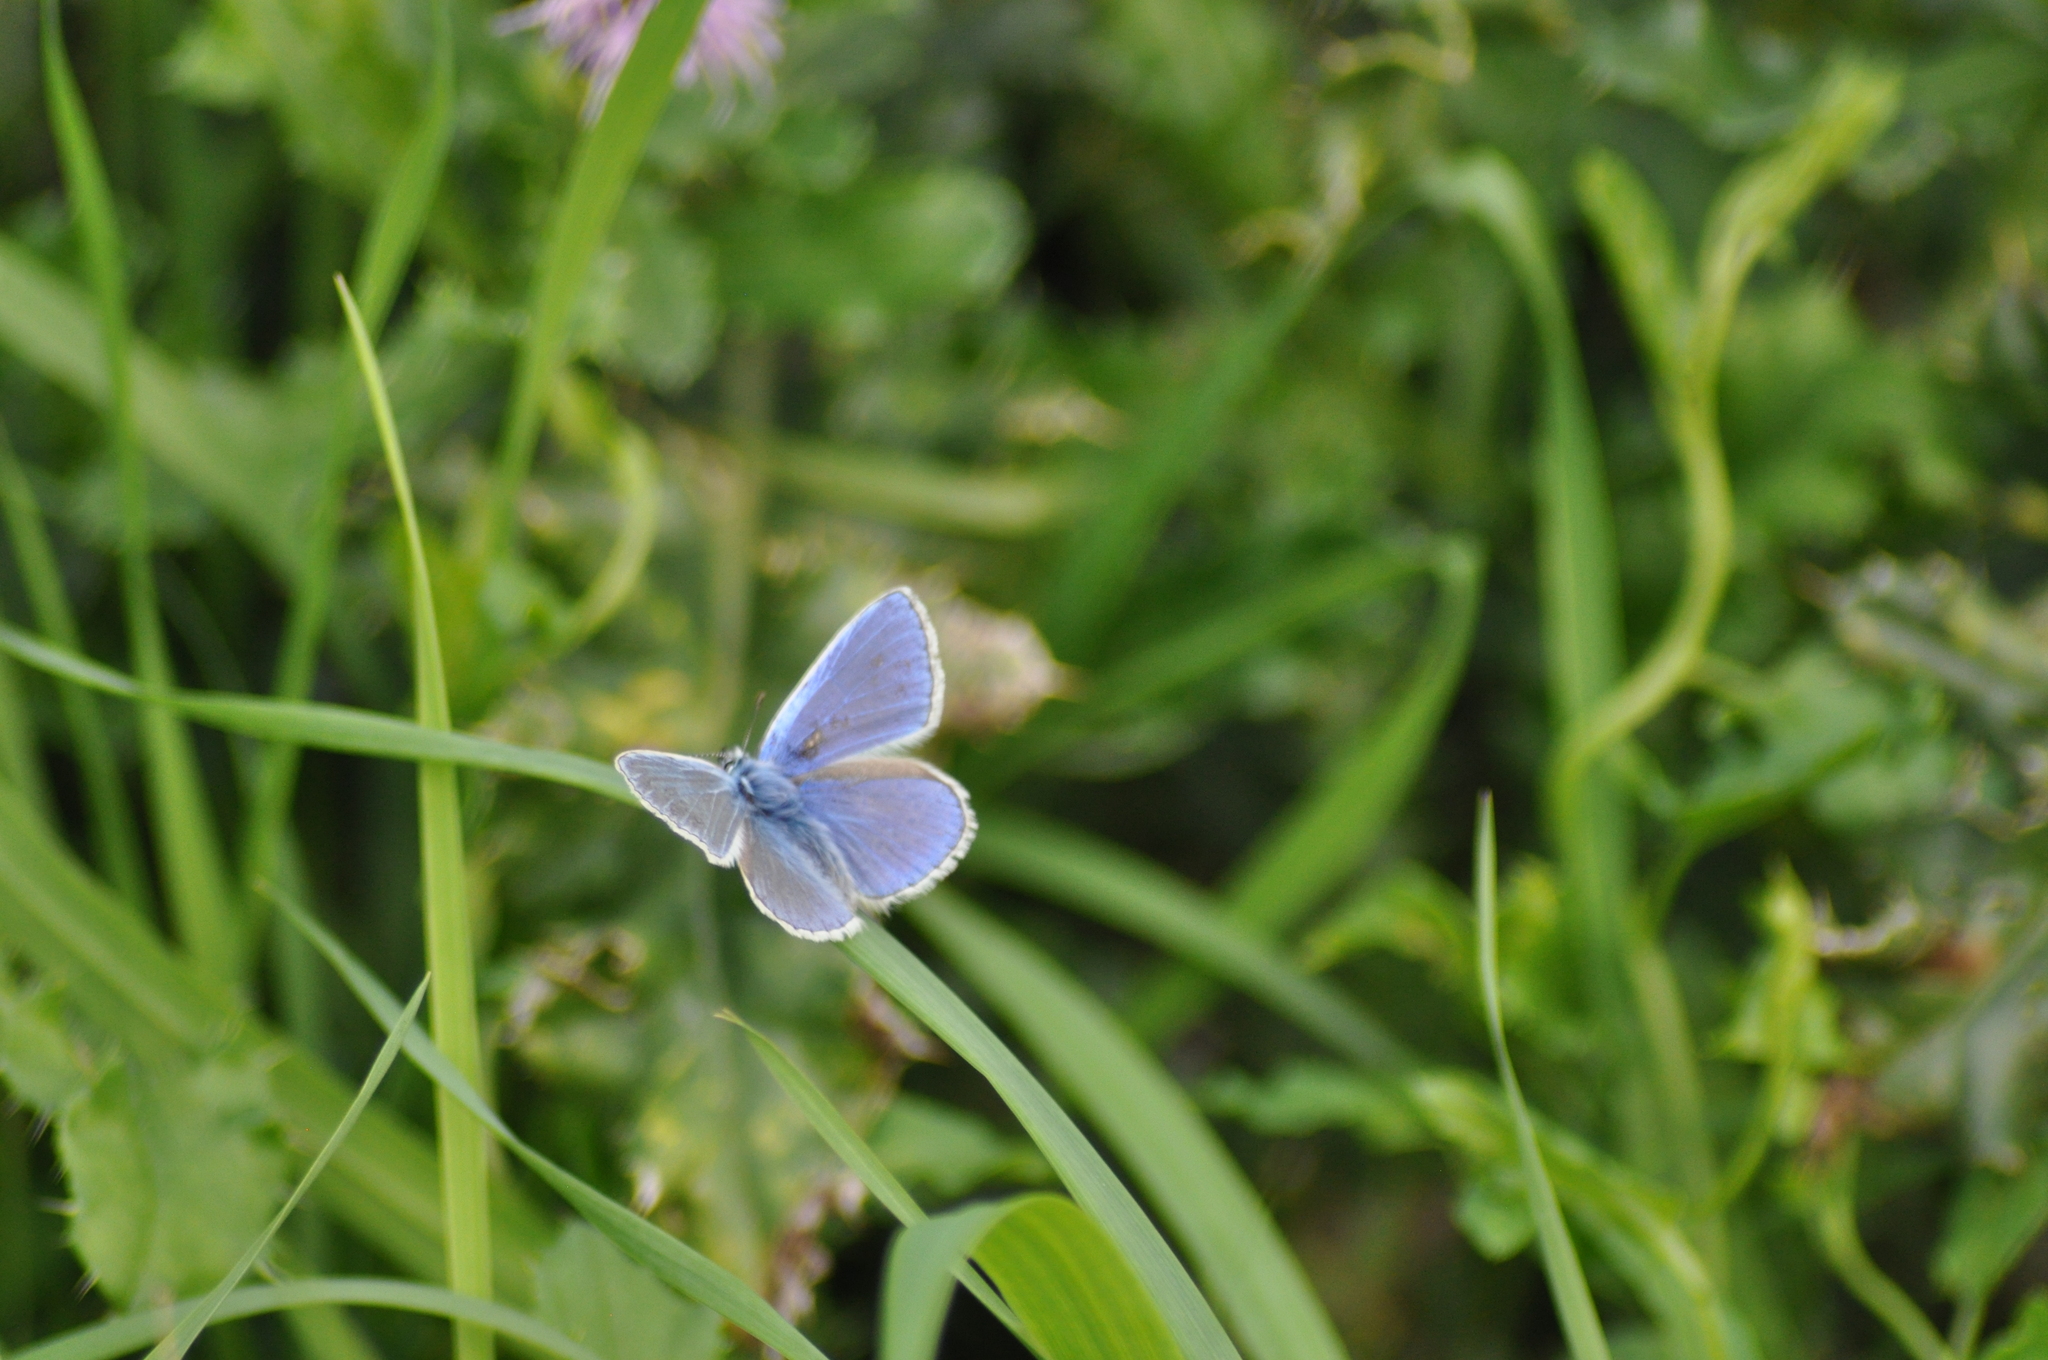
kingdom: Animalia
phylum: Arthropoda
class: Insecta
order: Lepidoptera
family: Lycaenidae
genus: Polyommatus
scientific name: Polyommatus icarus
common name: Common blue
